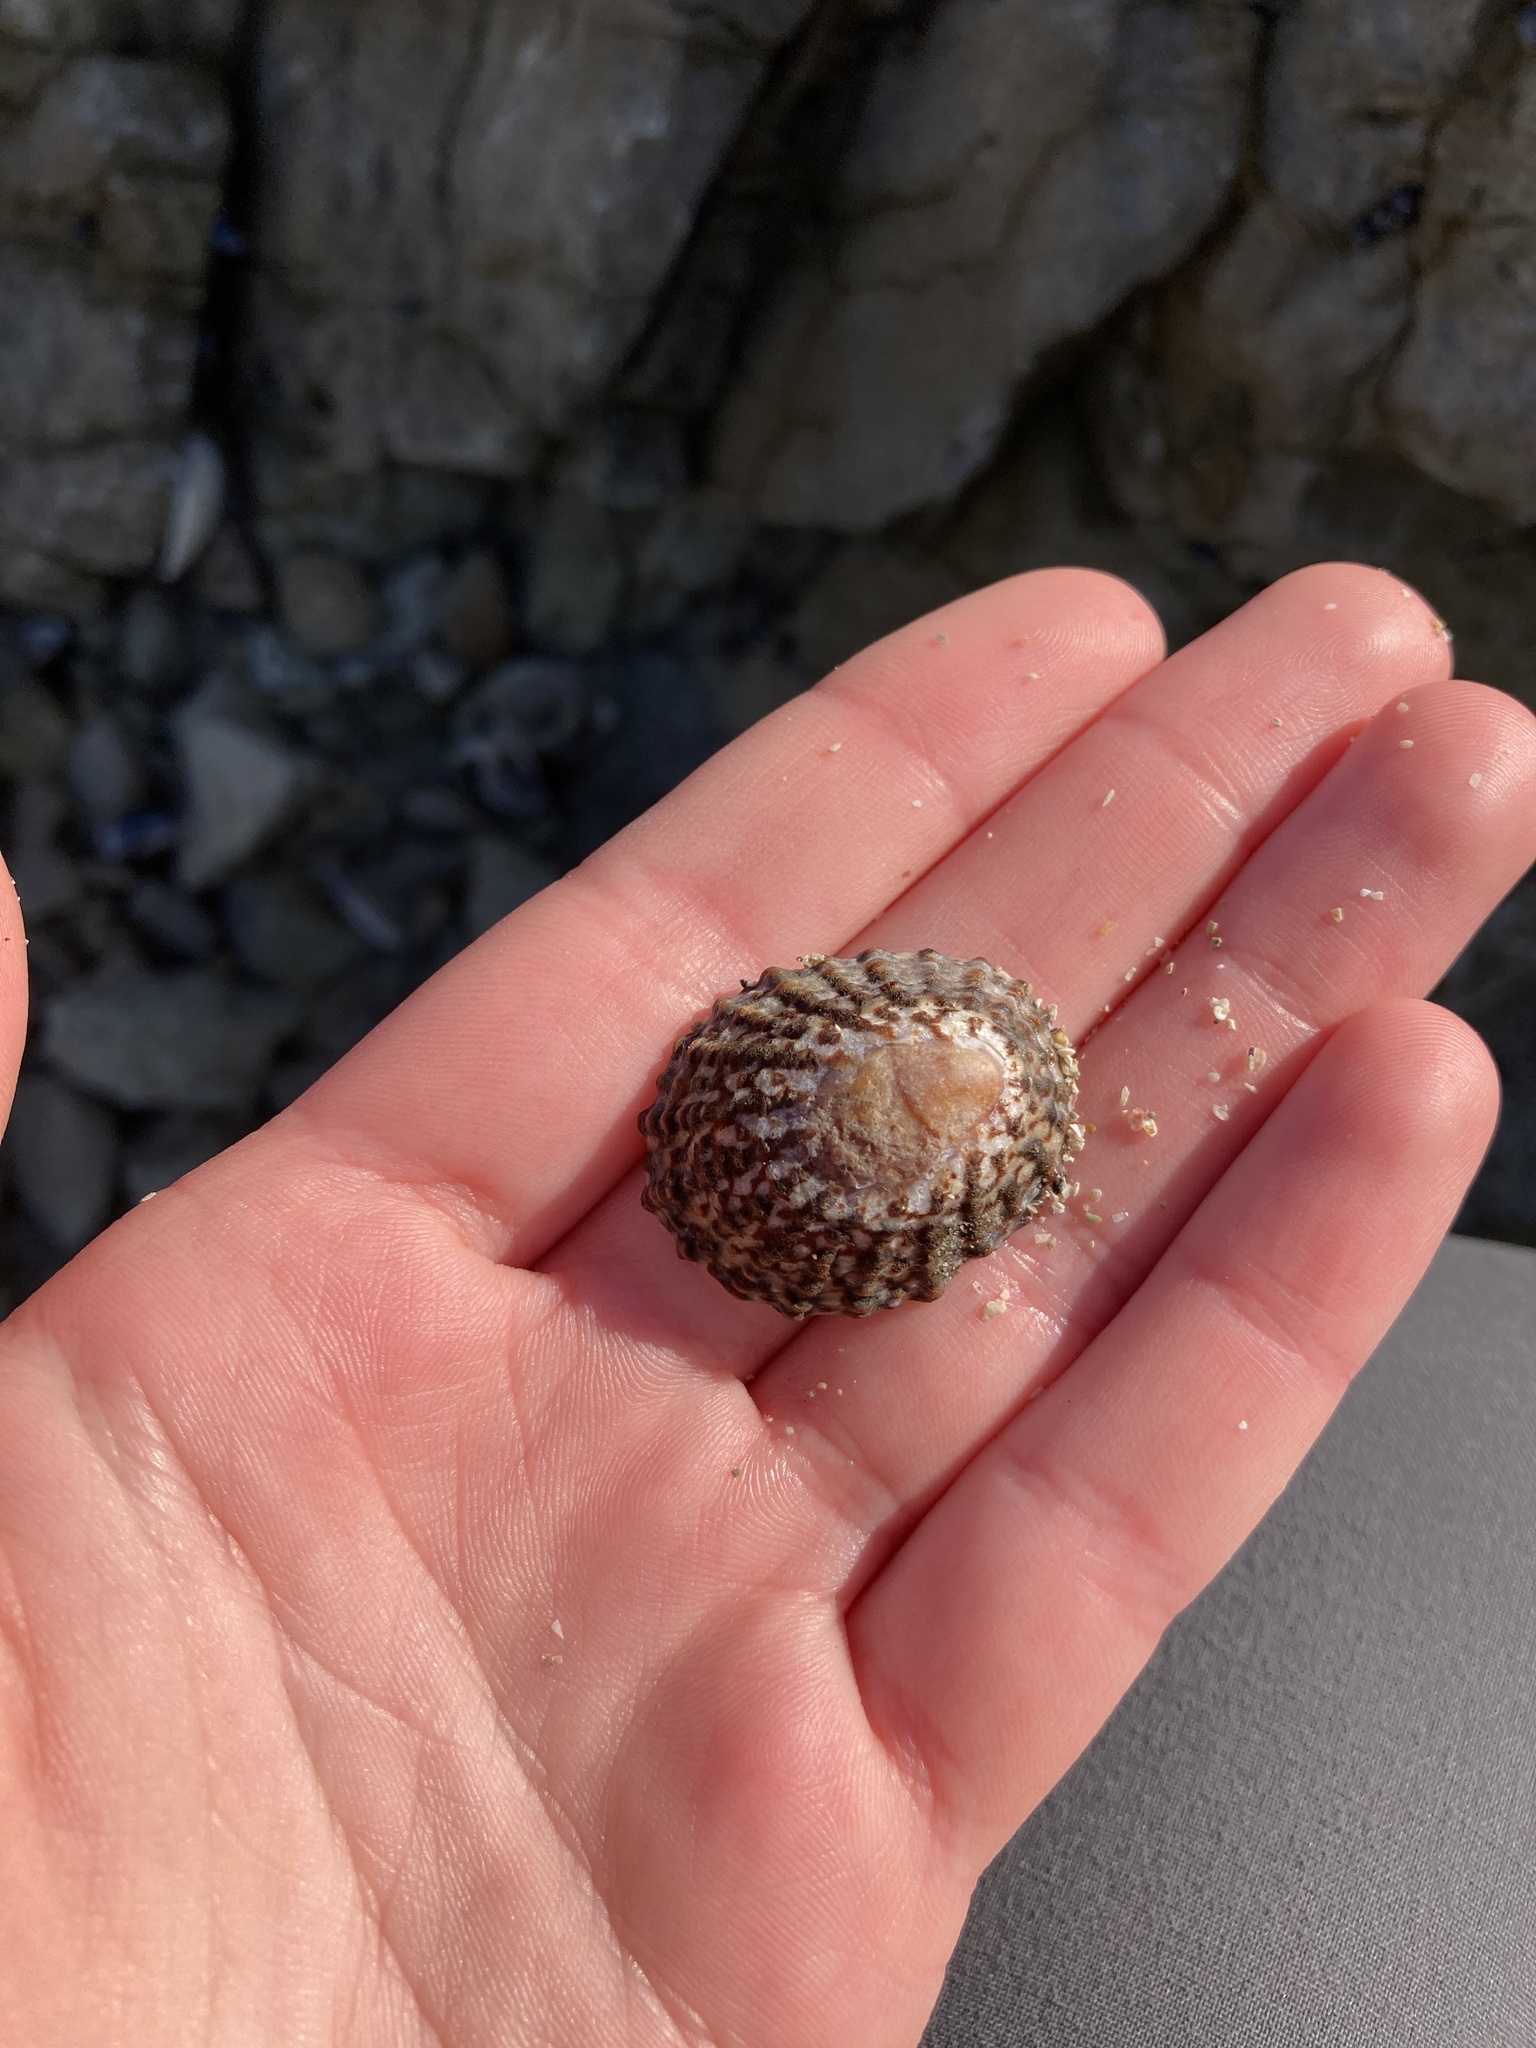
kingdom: Animalia
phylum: Mollusca
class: Gastropoda
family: Nacellidae
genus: Cellana
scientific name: Cellana denticulata
